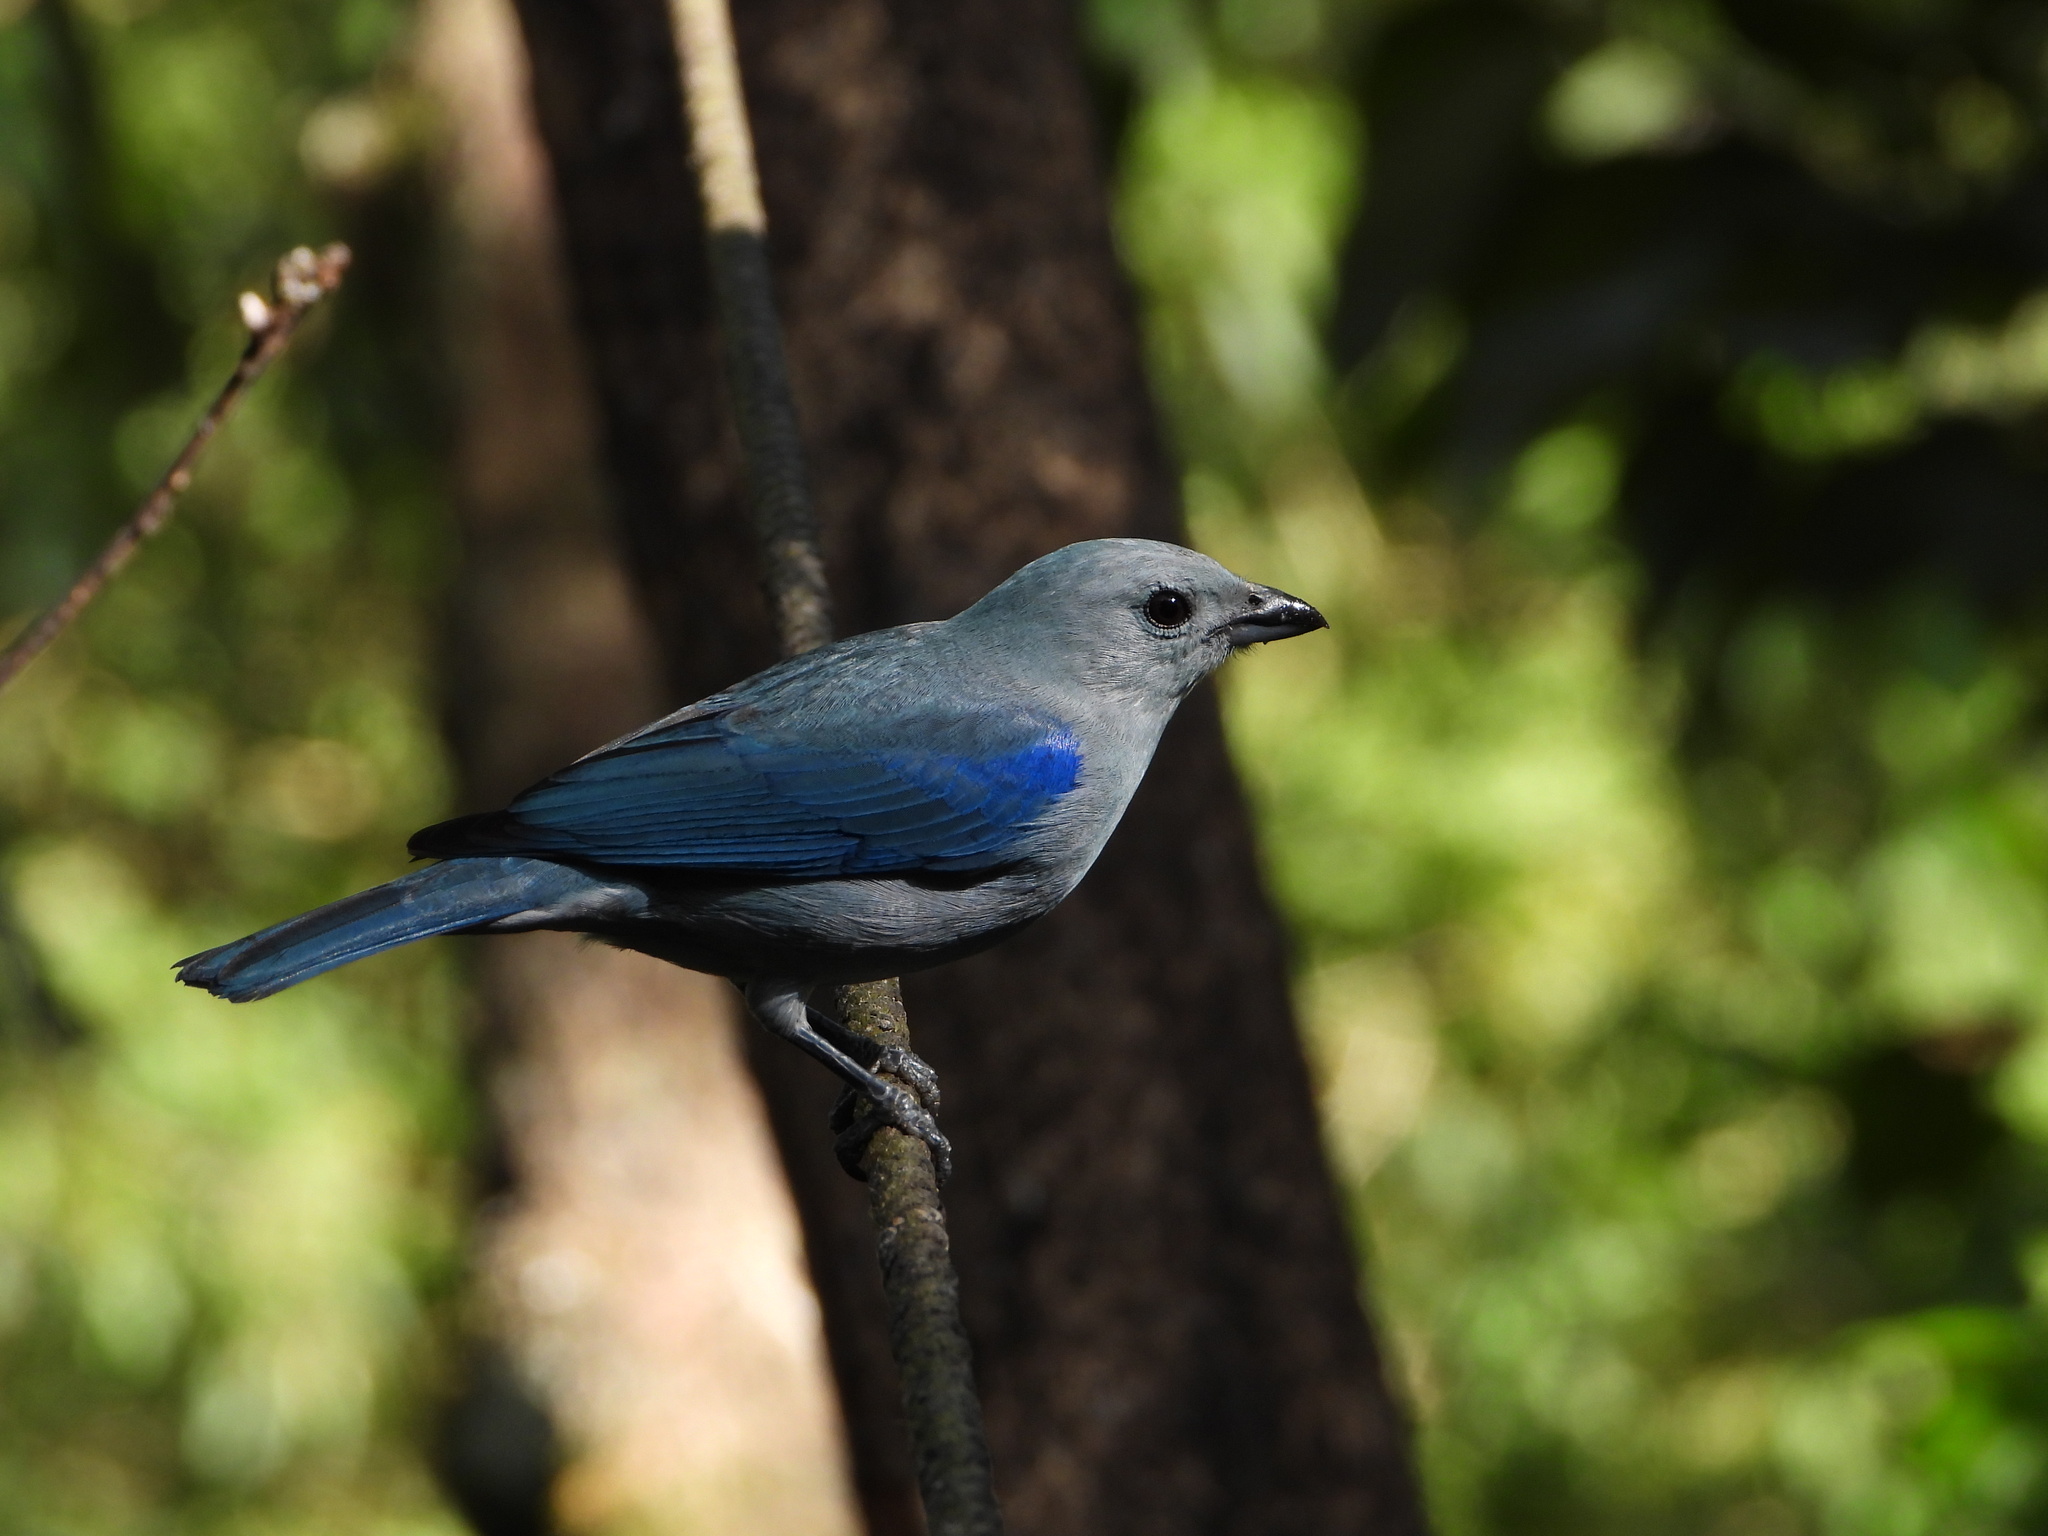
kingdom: Animalia
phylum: Chordata
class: Aves
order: Passeriformes
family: Thraupidae
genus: Thraupis
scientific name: Thraupis episcopus
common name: Blue-grey tanager
